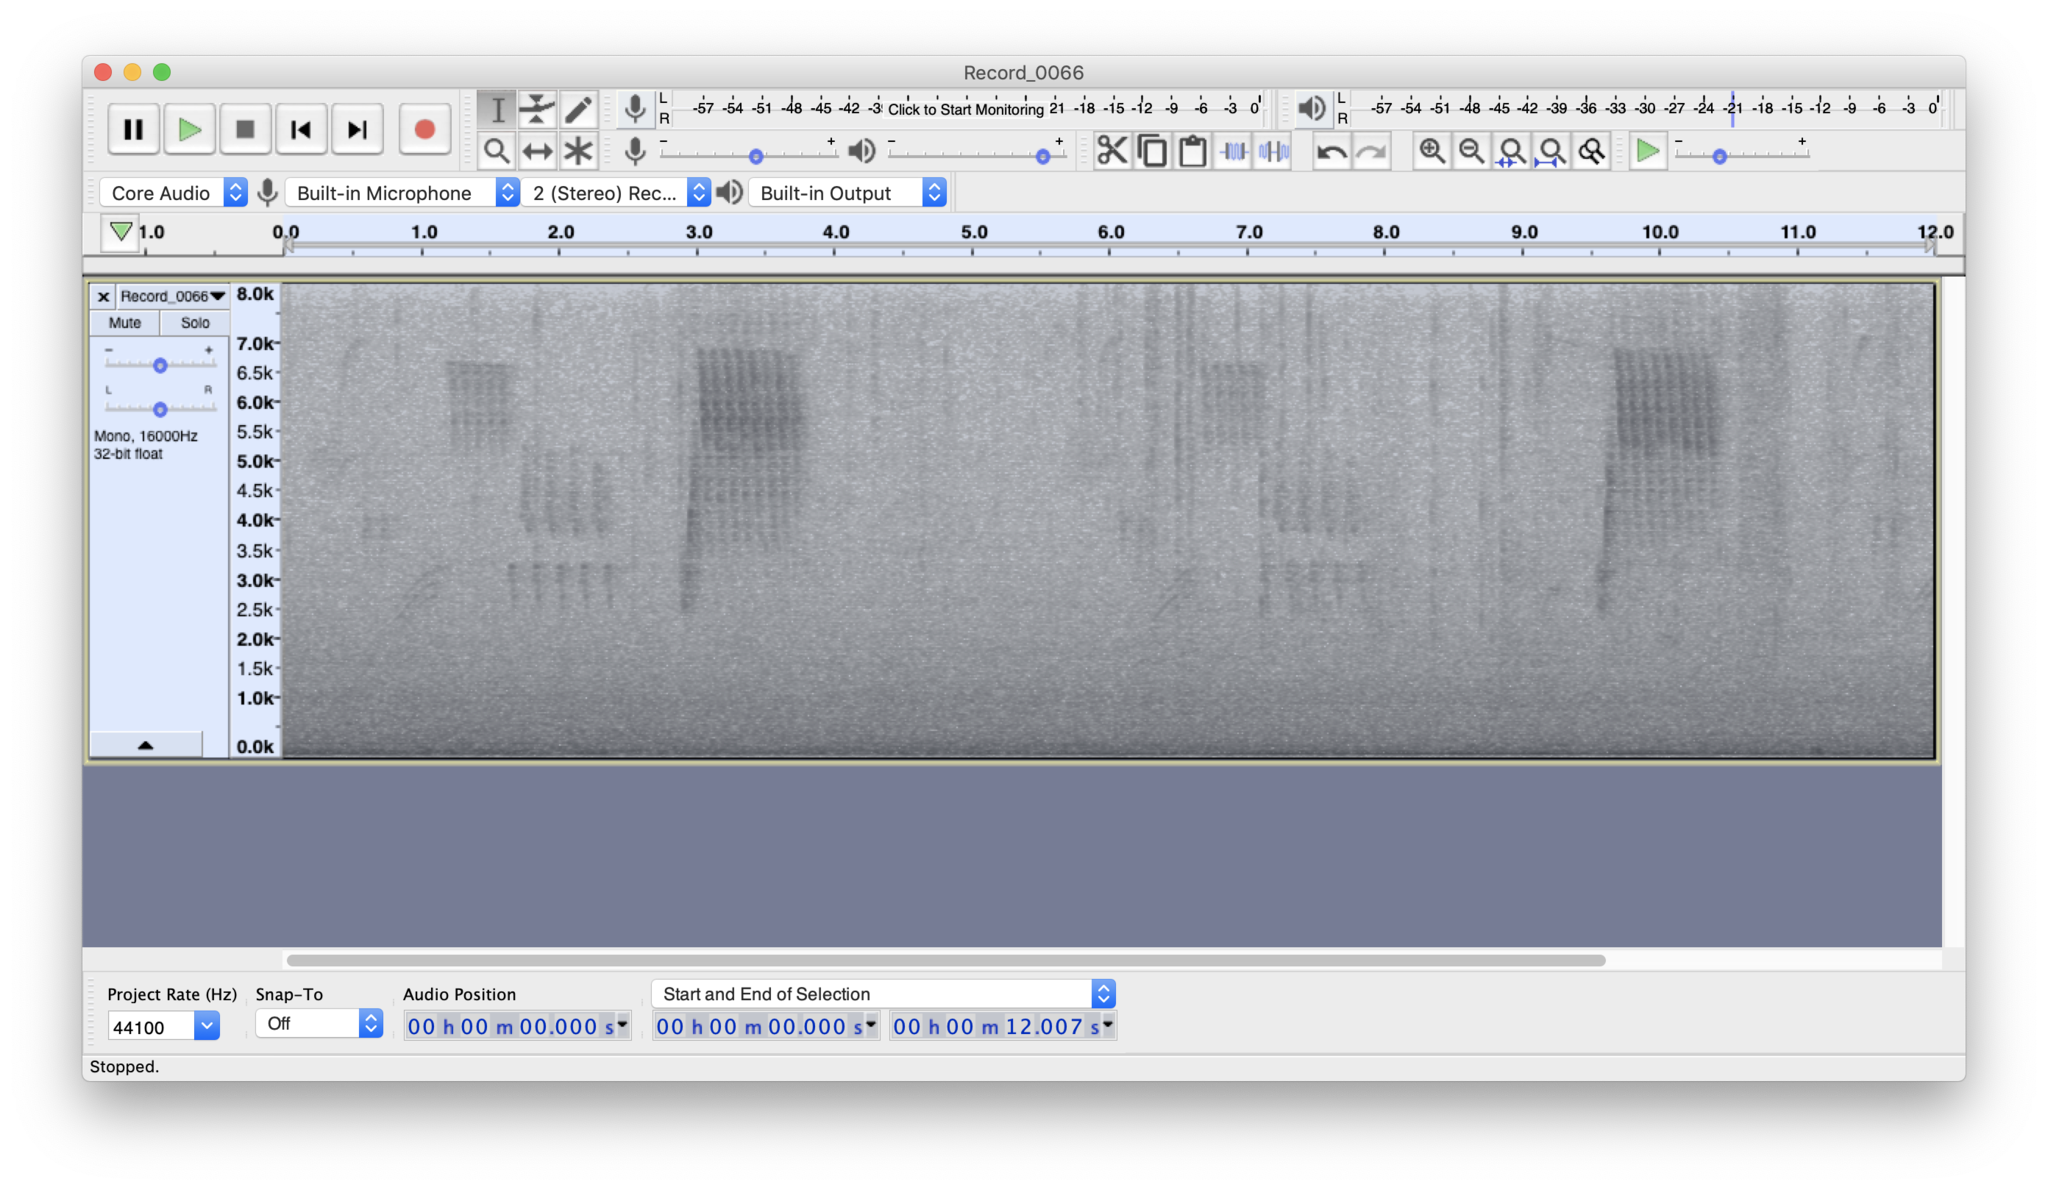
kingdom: Animalia
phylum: Chordata
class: Aves
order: Passeriformes
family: Passerellidae
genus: Pipilo
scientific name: Pipilo maculatus
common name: Spotted towhee
